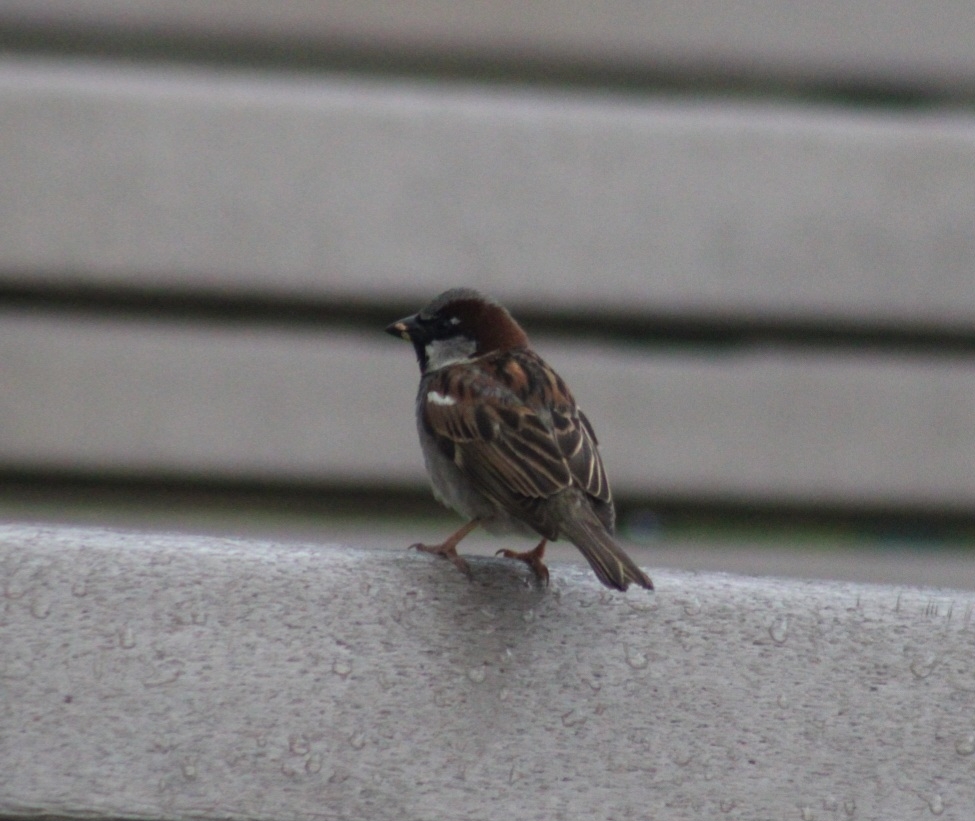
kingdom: Animalia
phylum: Chordata
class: Aves
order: Passeriformes
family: Passeridae
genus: Passer
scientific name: Passer domesticus
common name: House sparrow
